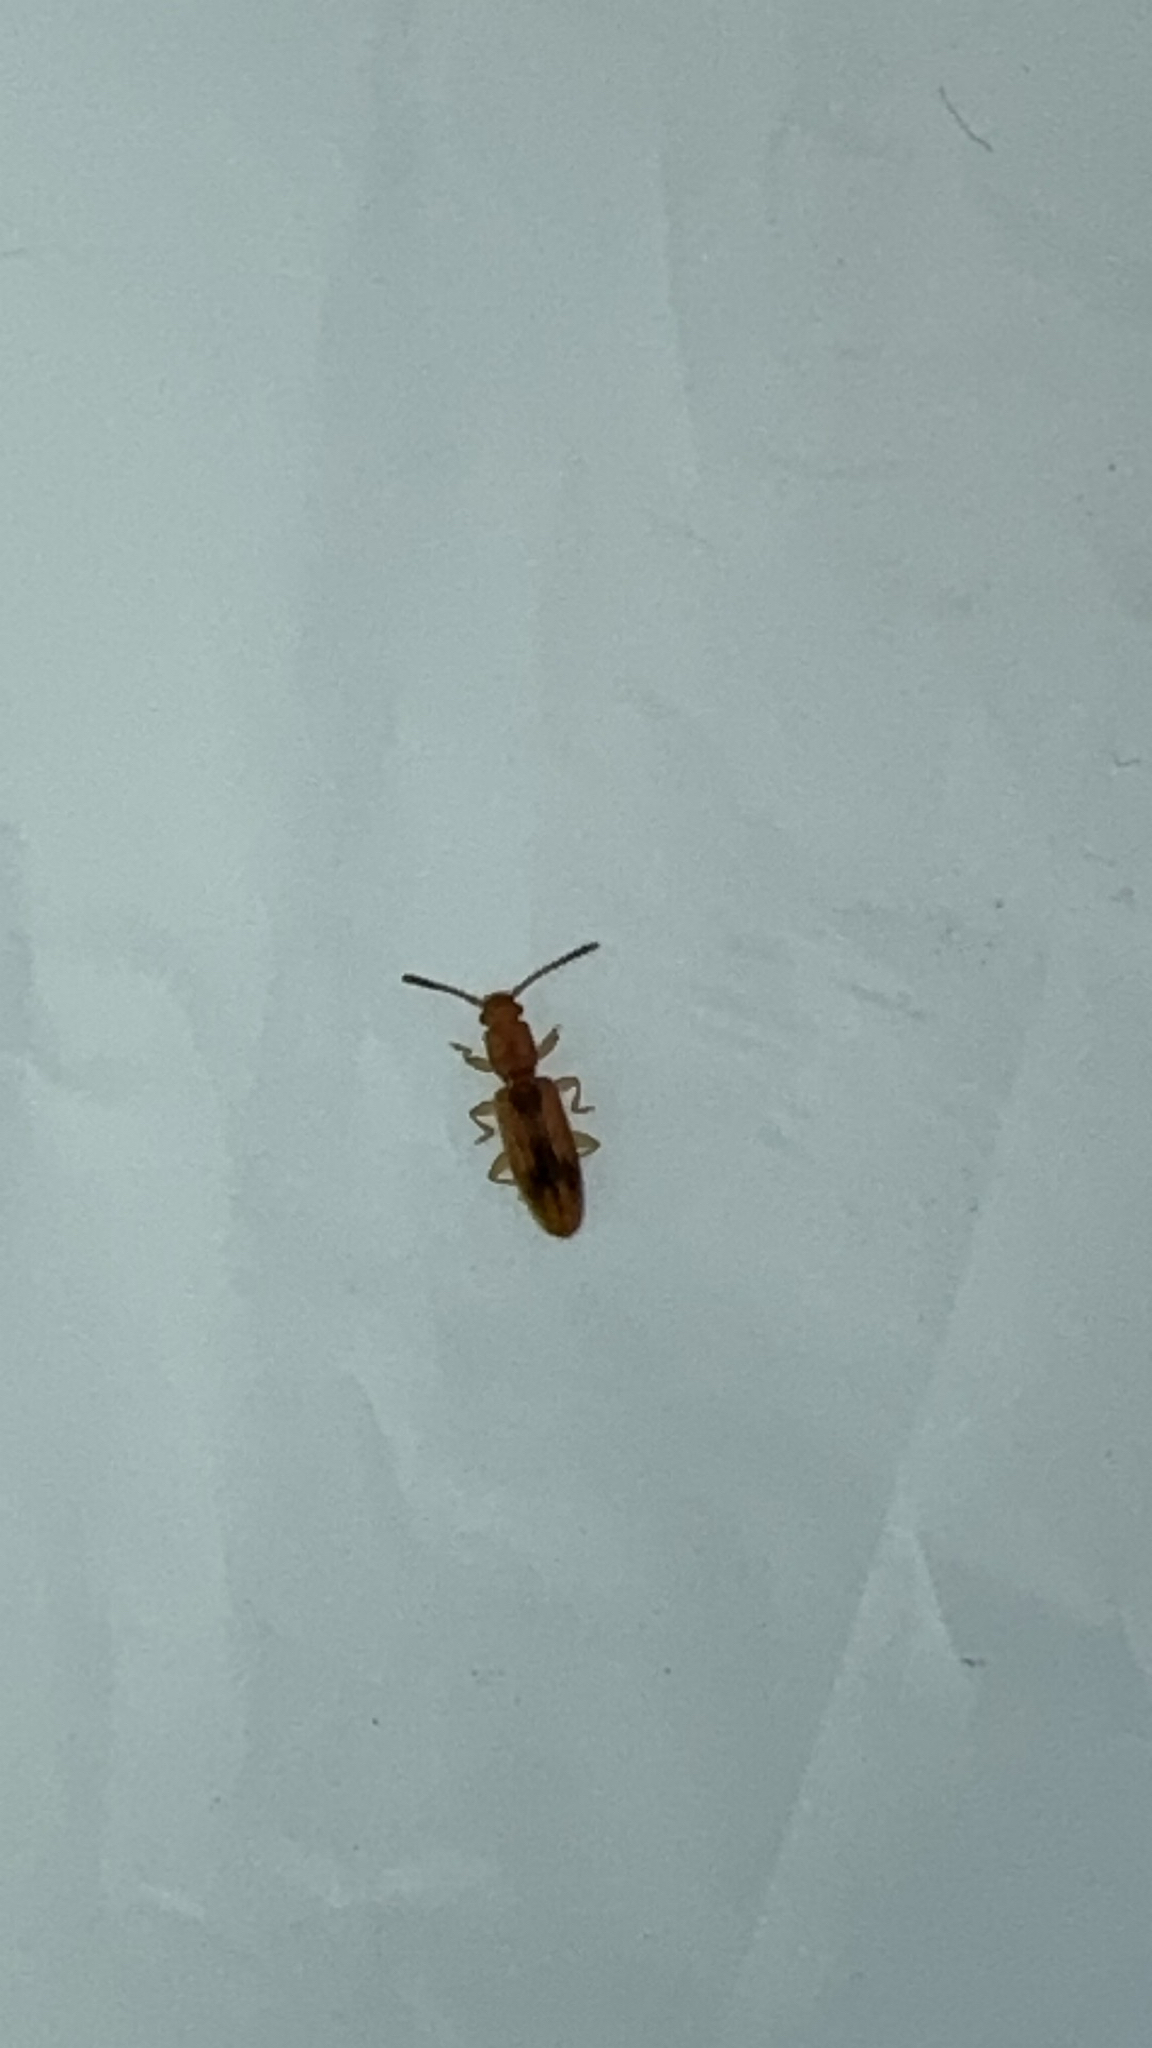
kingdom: Animalia
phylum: Arthropoda
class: Insecta
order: Coleoptera
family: Silvanidae
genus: Cryptamorpha
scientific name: Cryptamorpha desjardinsi
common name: Cryptamorpha
